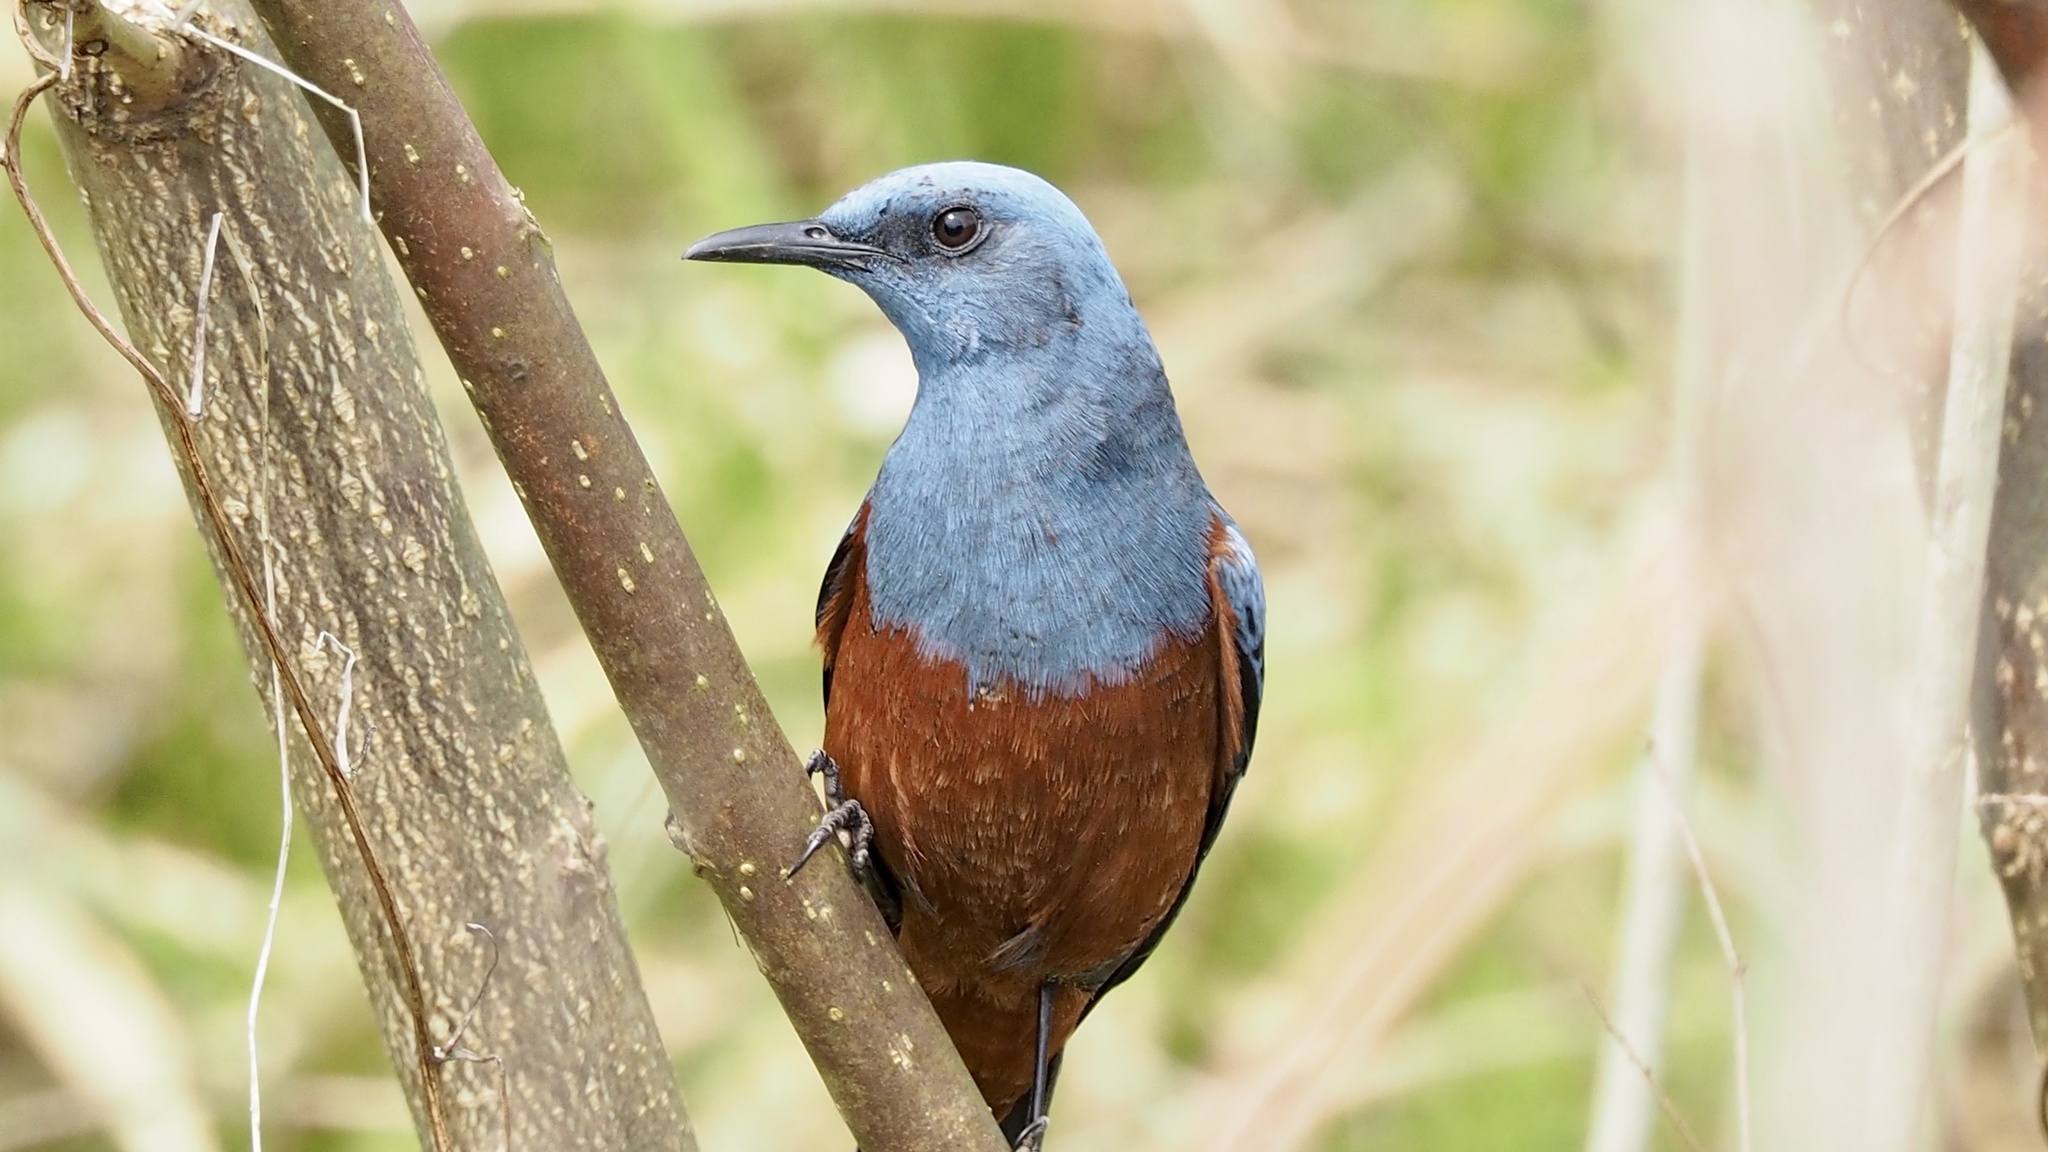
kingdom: Animalia
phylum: Chordata
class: Aves
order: Passeriformes
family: Muscicapidae
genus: Monticola
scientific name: Monticola solitarius
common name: Blue rock thrush
